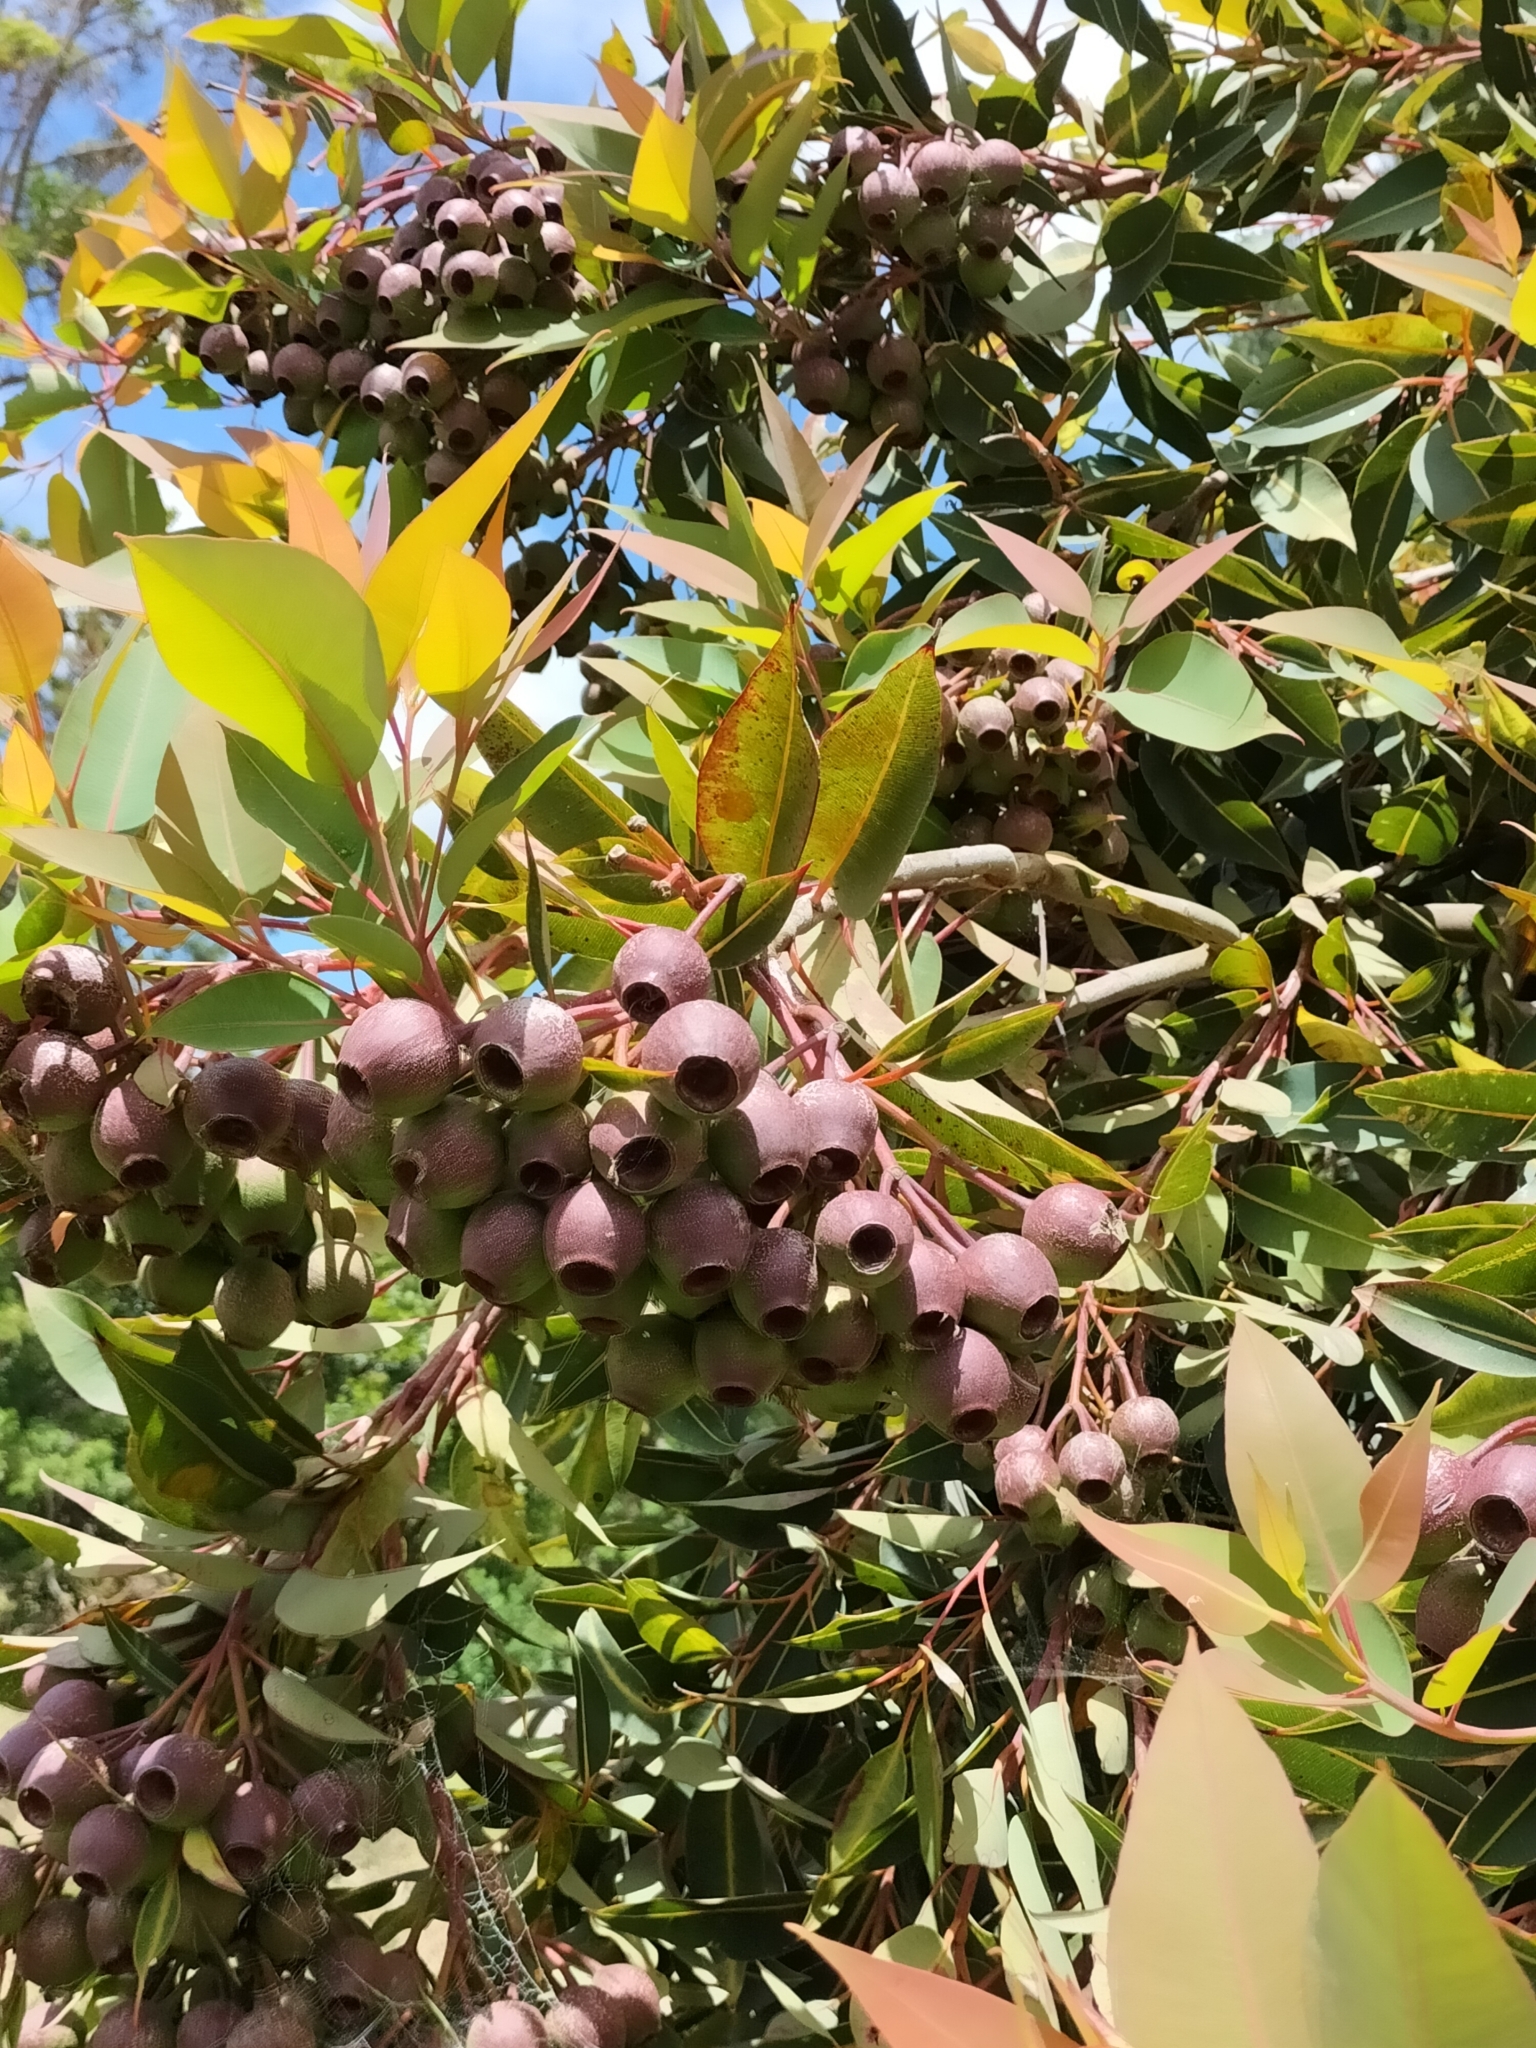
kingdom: Plantae
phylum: Tracheophyta
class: Magnoliopsida
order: Myrtales
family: Myrtaceae
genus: Corymbia
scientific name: Corymbia ficifolia
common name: Redflower gum
